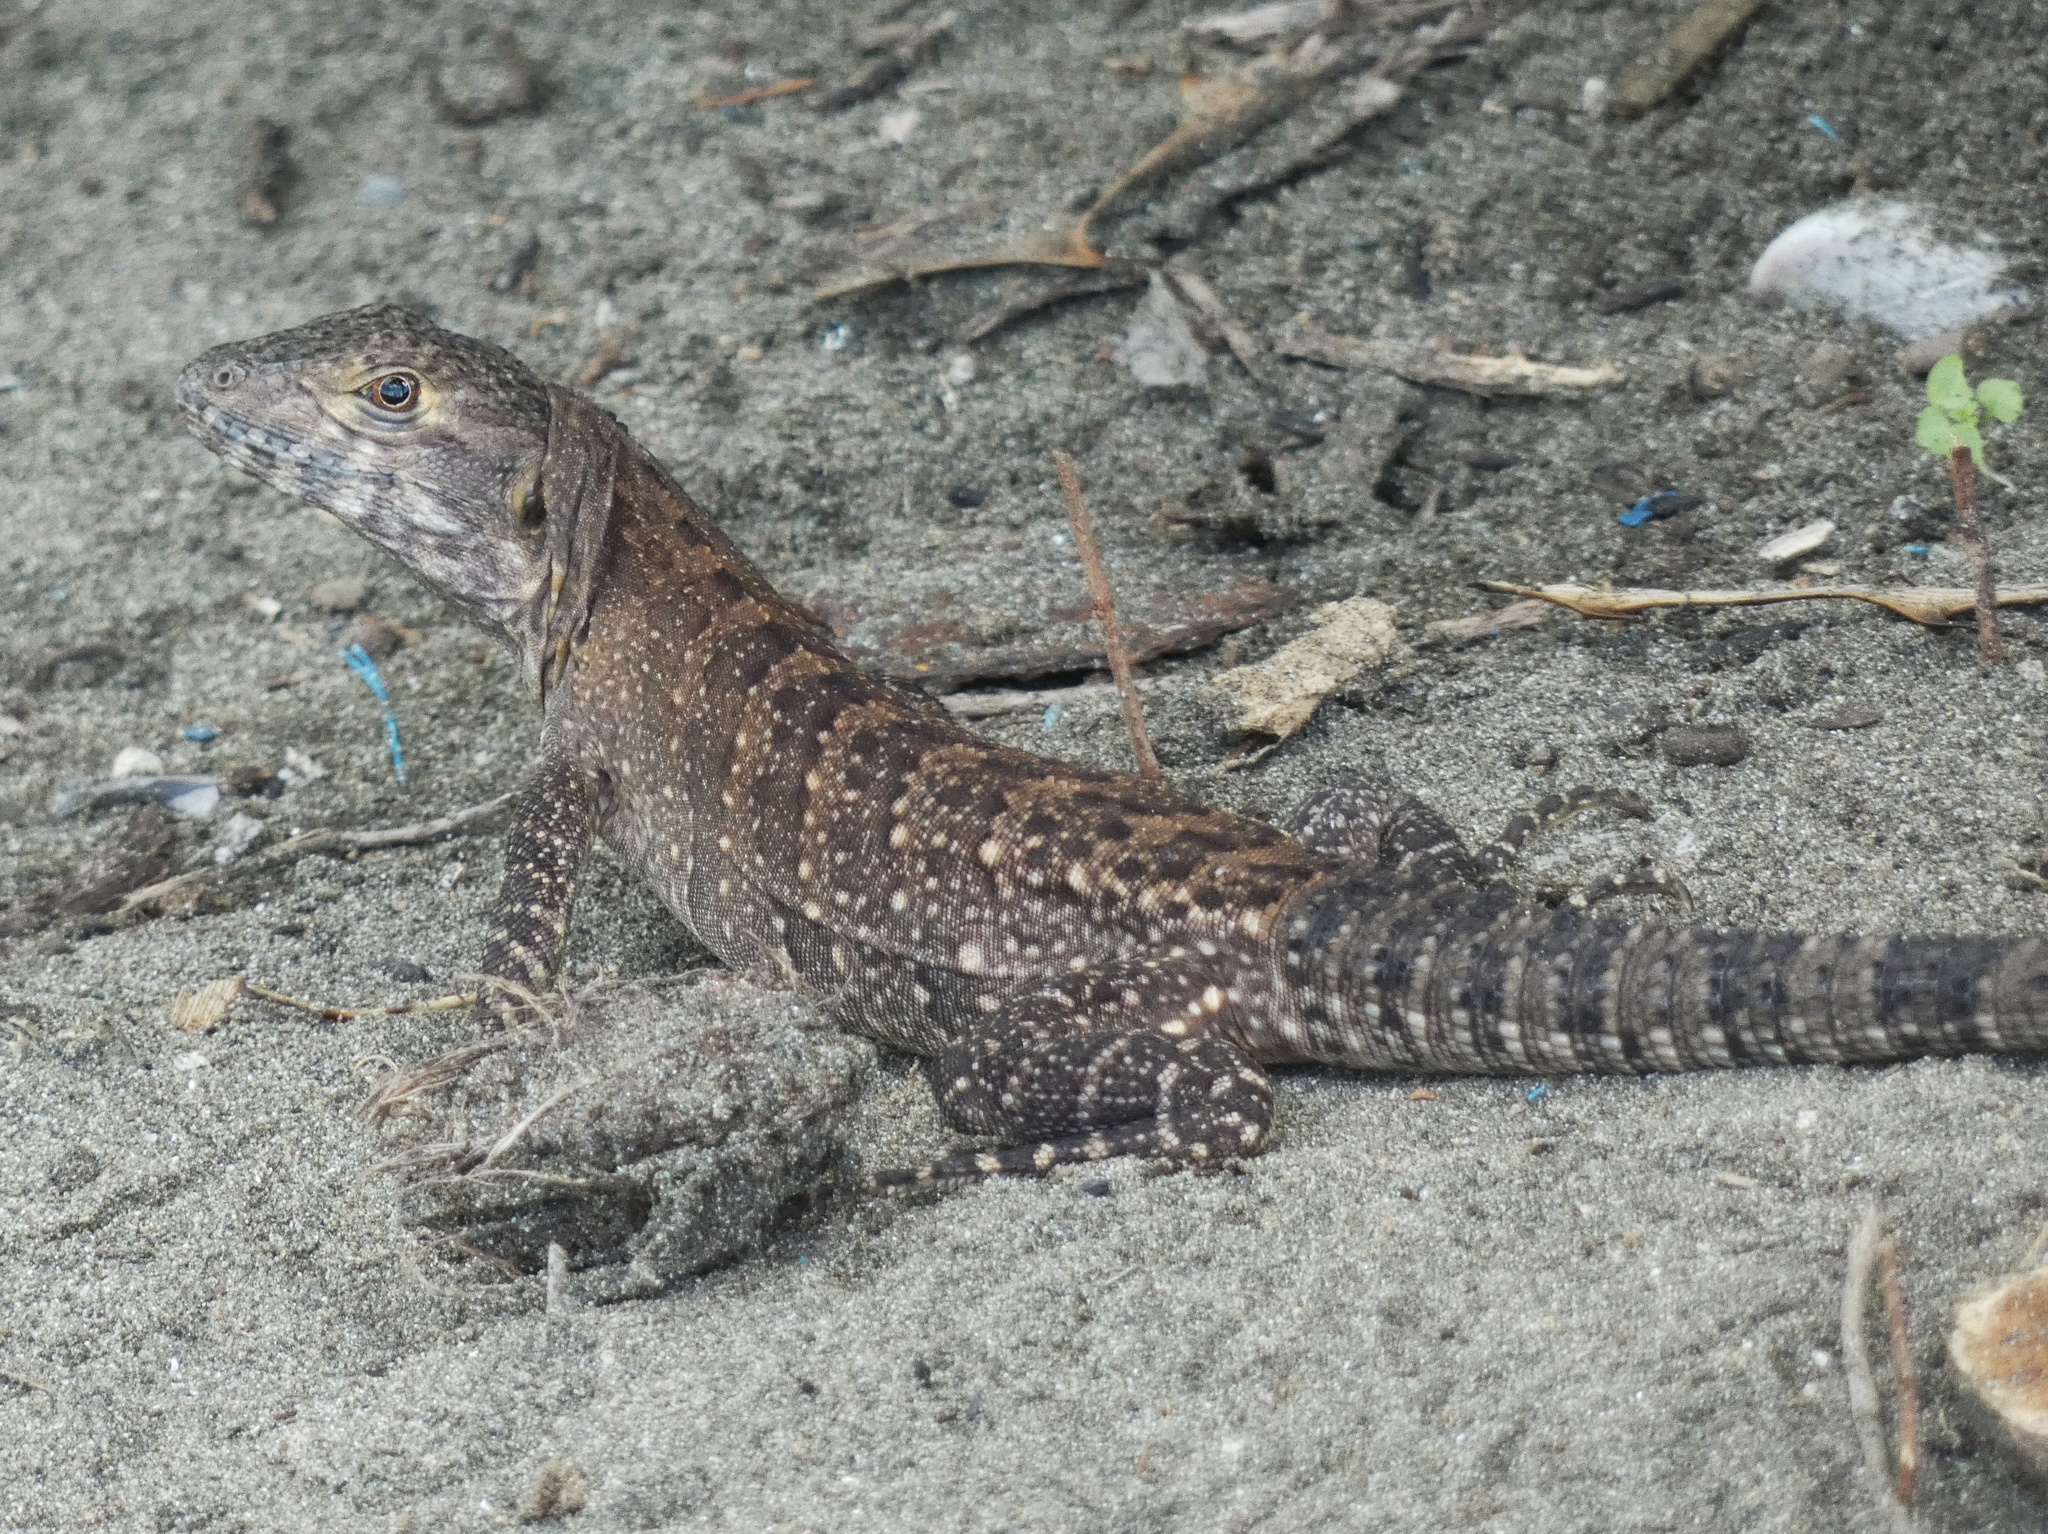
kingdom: Animalia
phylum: Chordata
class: Squamata
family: Iguanidae
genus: Ctenosaura
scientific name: Ctenosaura similis
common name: Black spiny-tailed iguana
